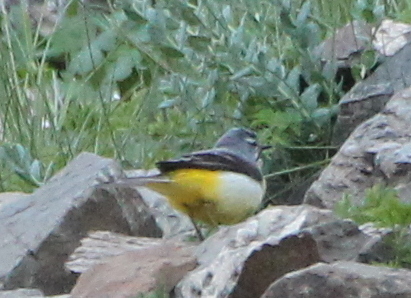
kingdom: Animalia
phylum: Chordata
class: Aves
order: Passeriformes
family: Motacillidae
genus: Motacilla
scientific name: Motacilla cinerea
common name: Grey wagtail
